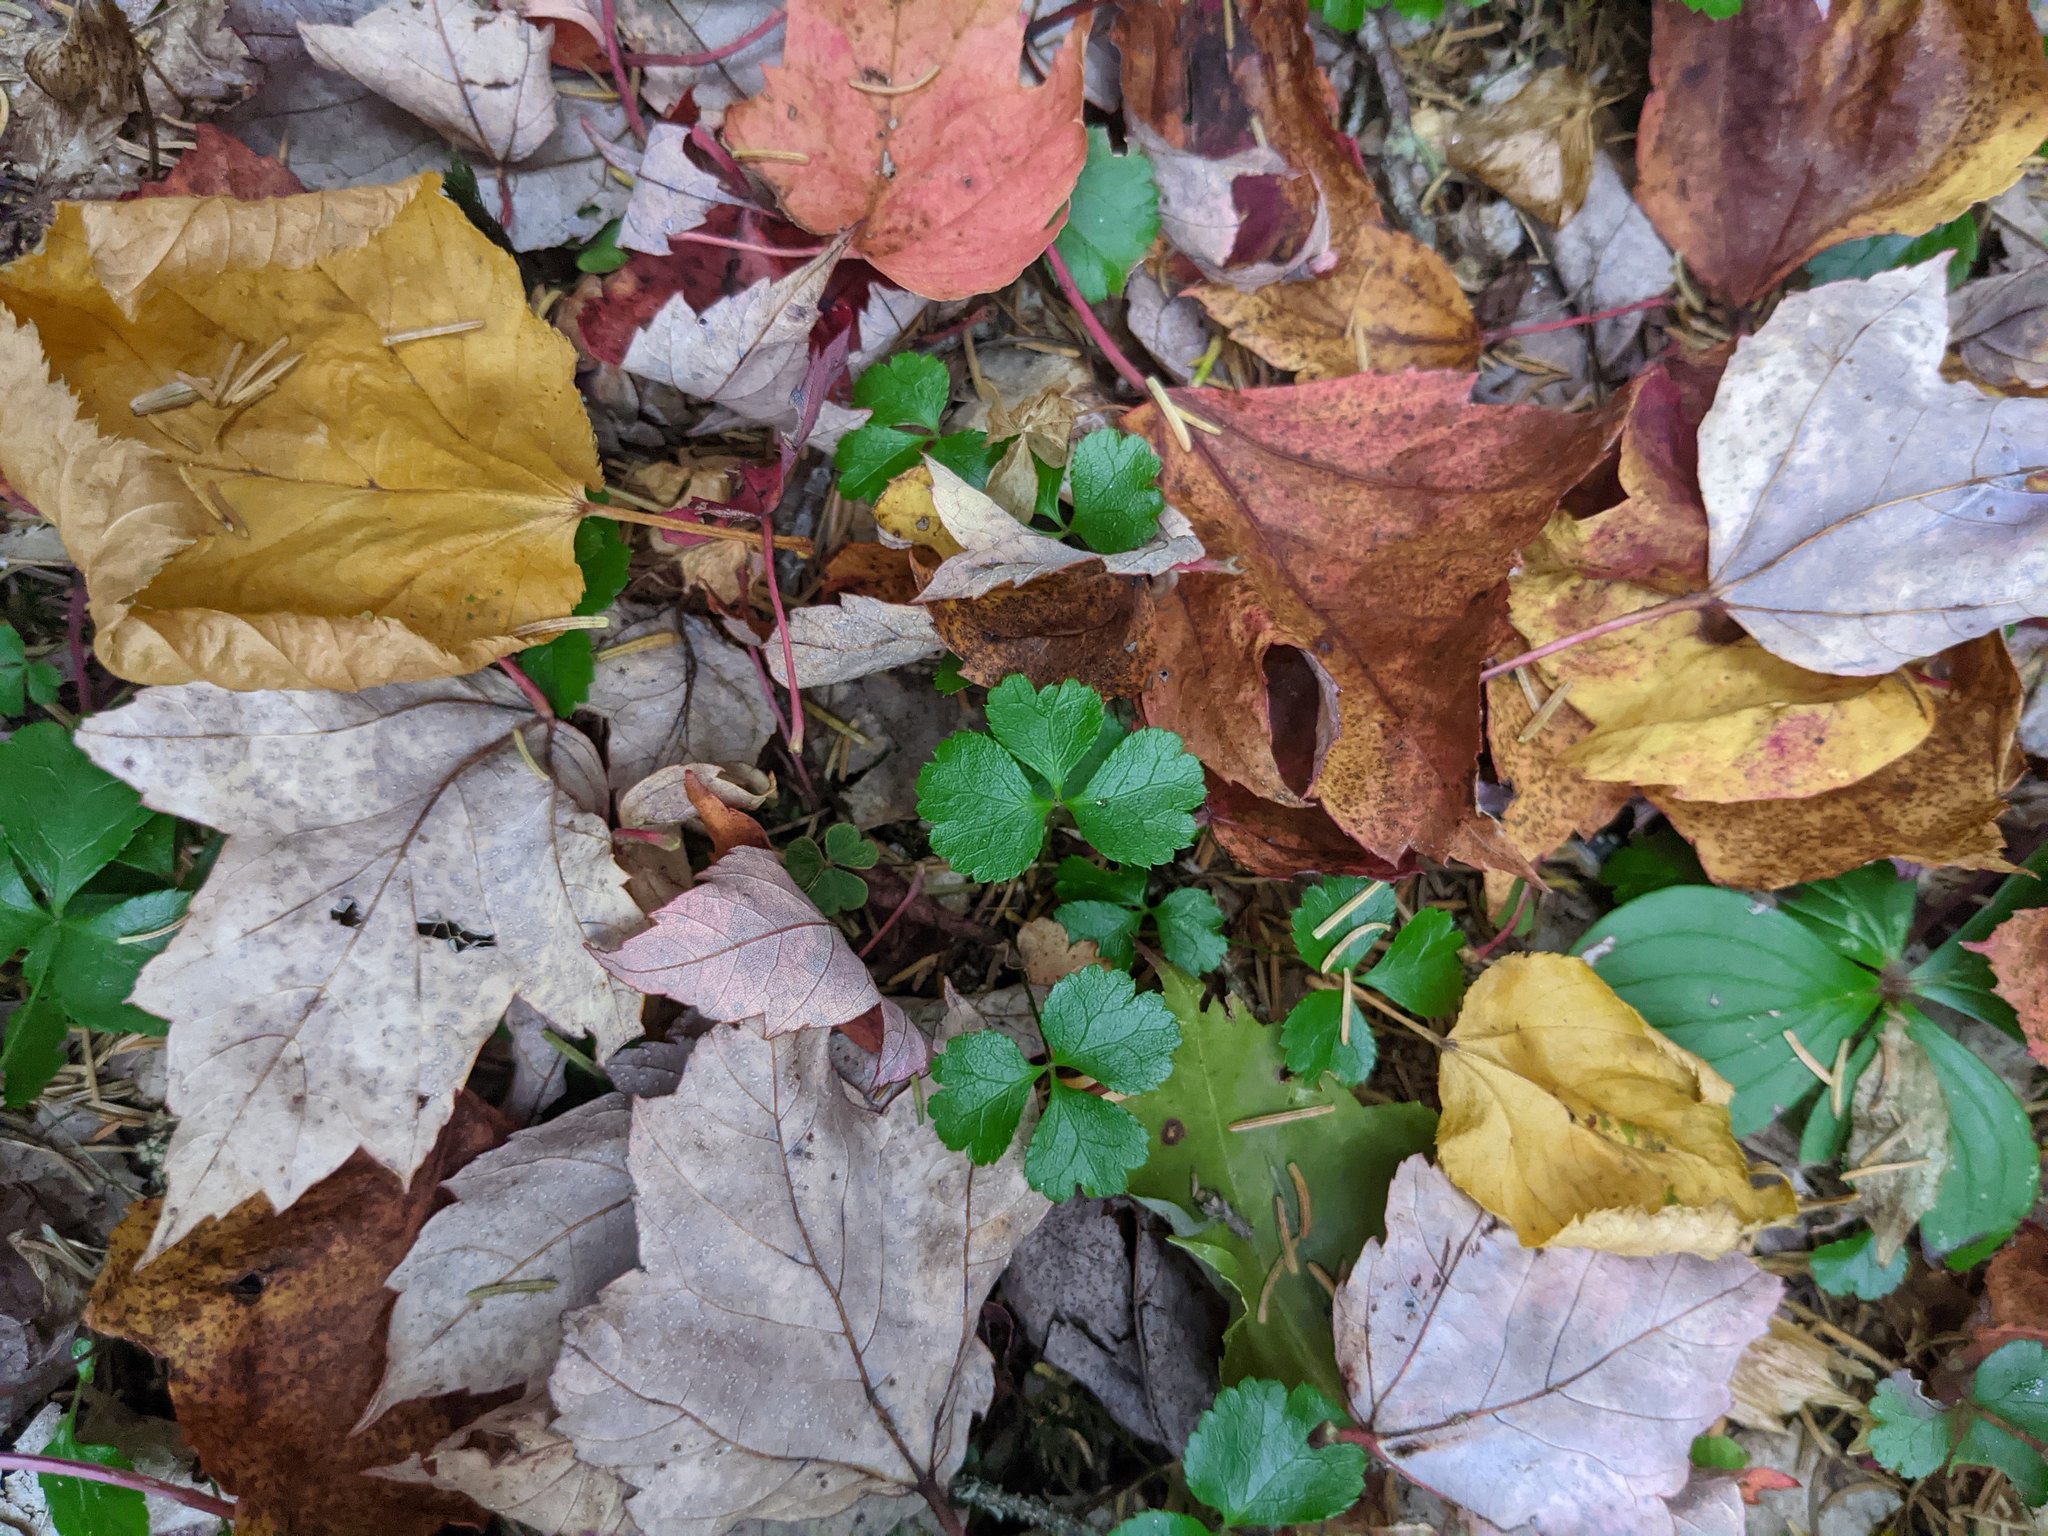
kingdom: Plantae
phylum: Tracheophyta
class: Magnoliopsida
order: Ranunculales
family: Ranunculaceae
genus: Coptis
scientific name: Coptis trifolia
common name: Canker-root
